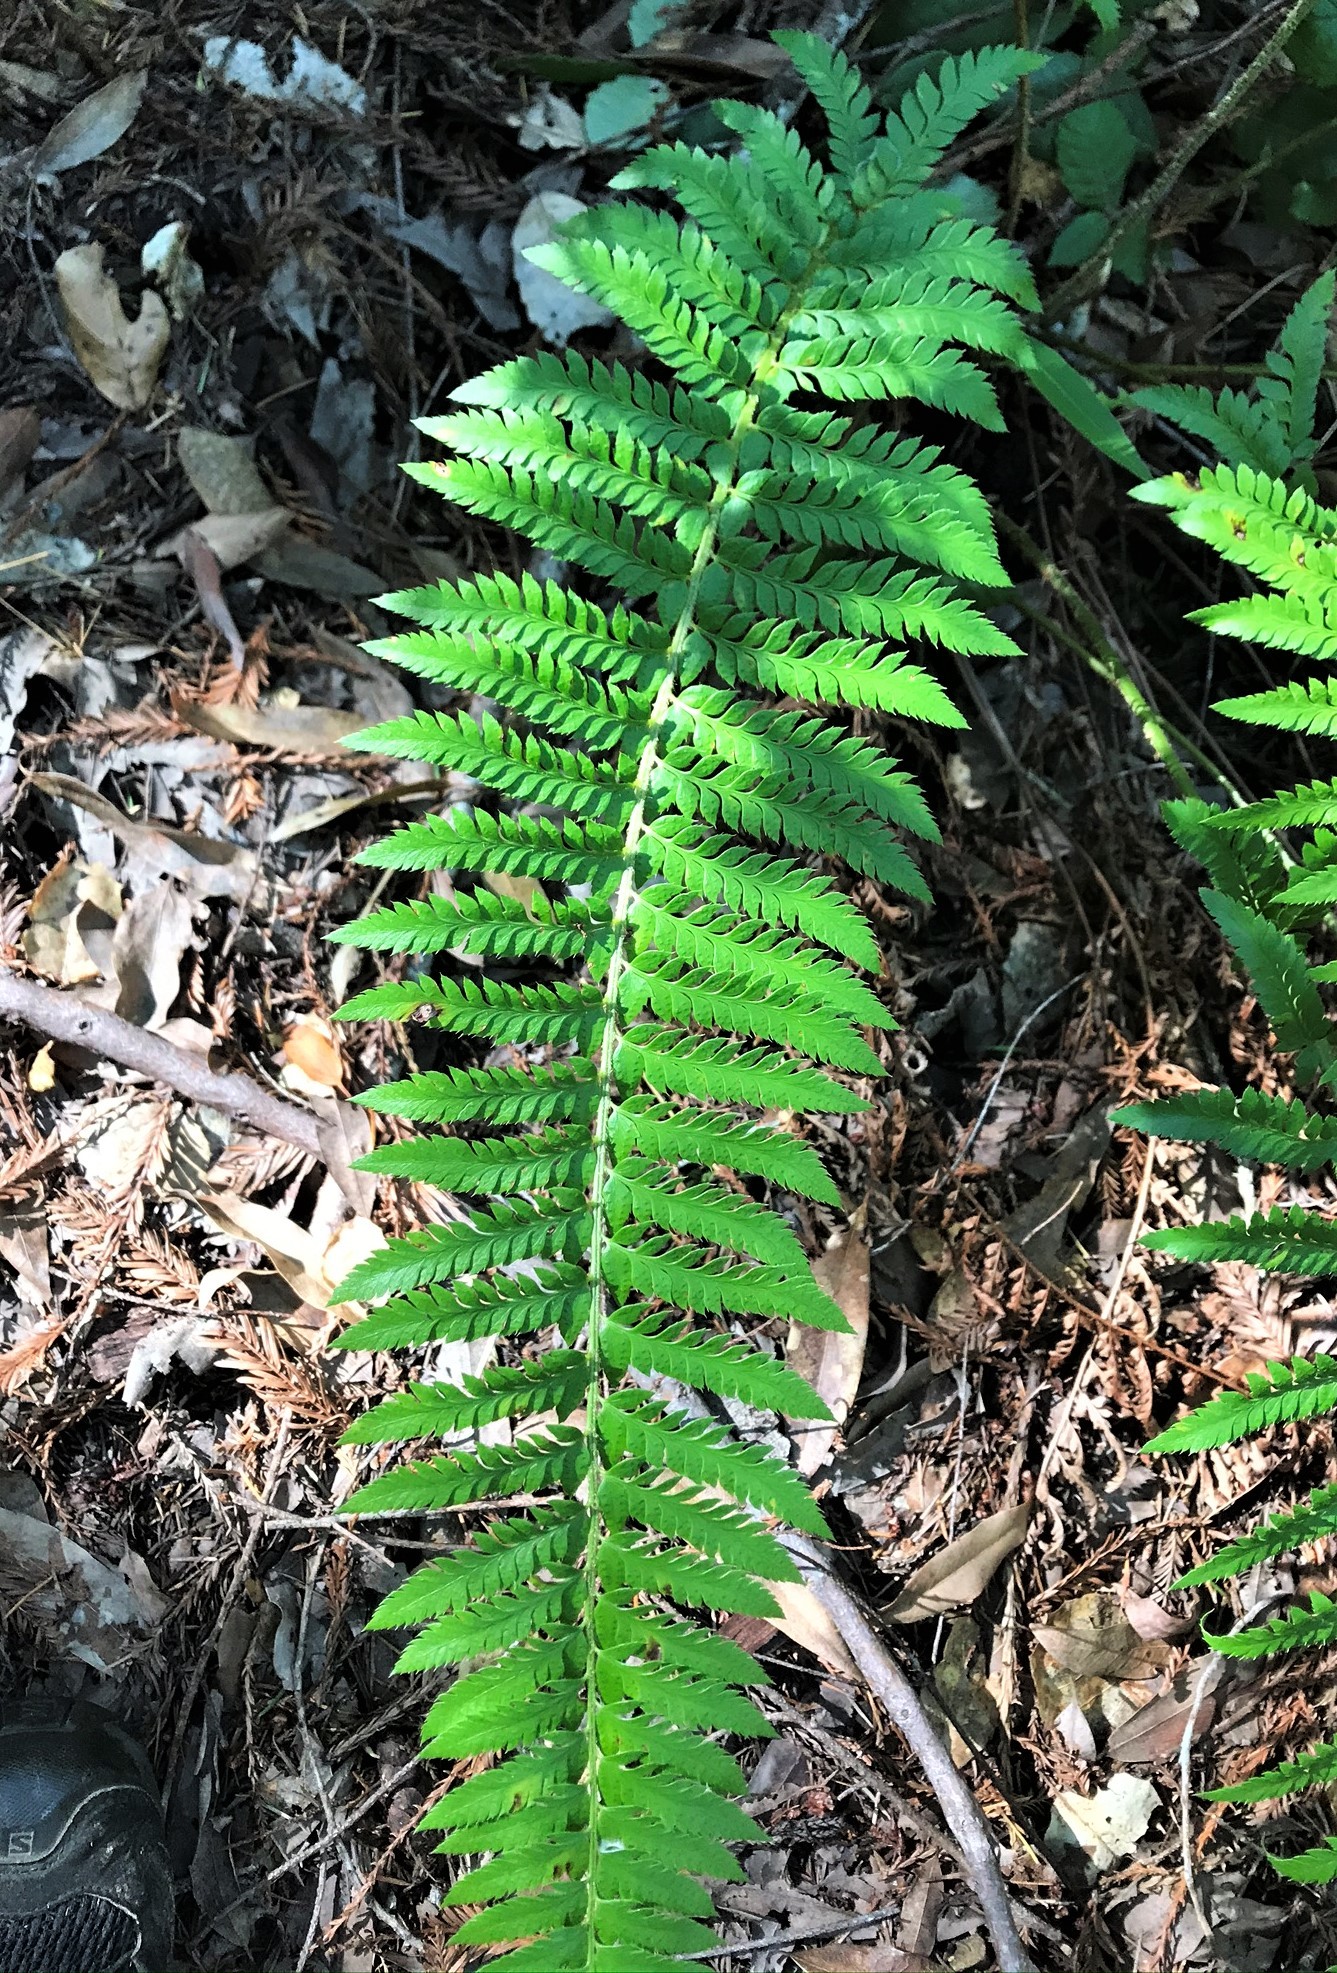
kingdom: Plantae
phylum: Tracheophyta
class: Polypodiopsida
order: Polypodiales
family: Dryopteridaceae
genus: Polystichum
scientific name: Polystichum californicum
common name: California sword fern
